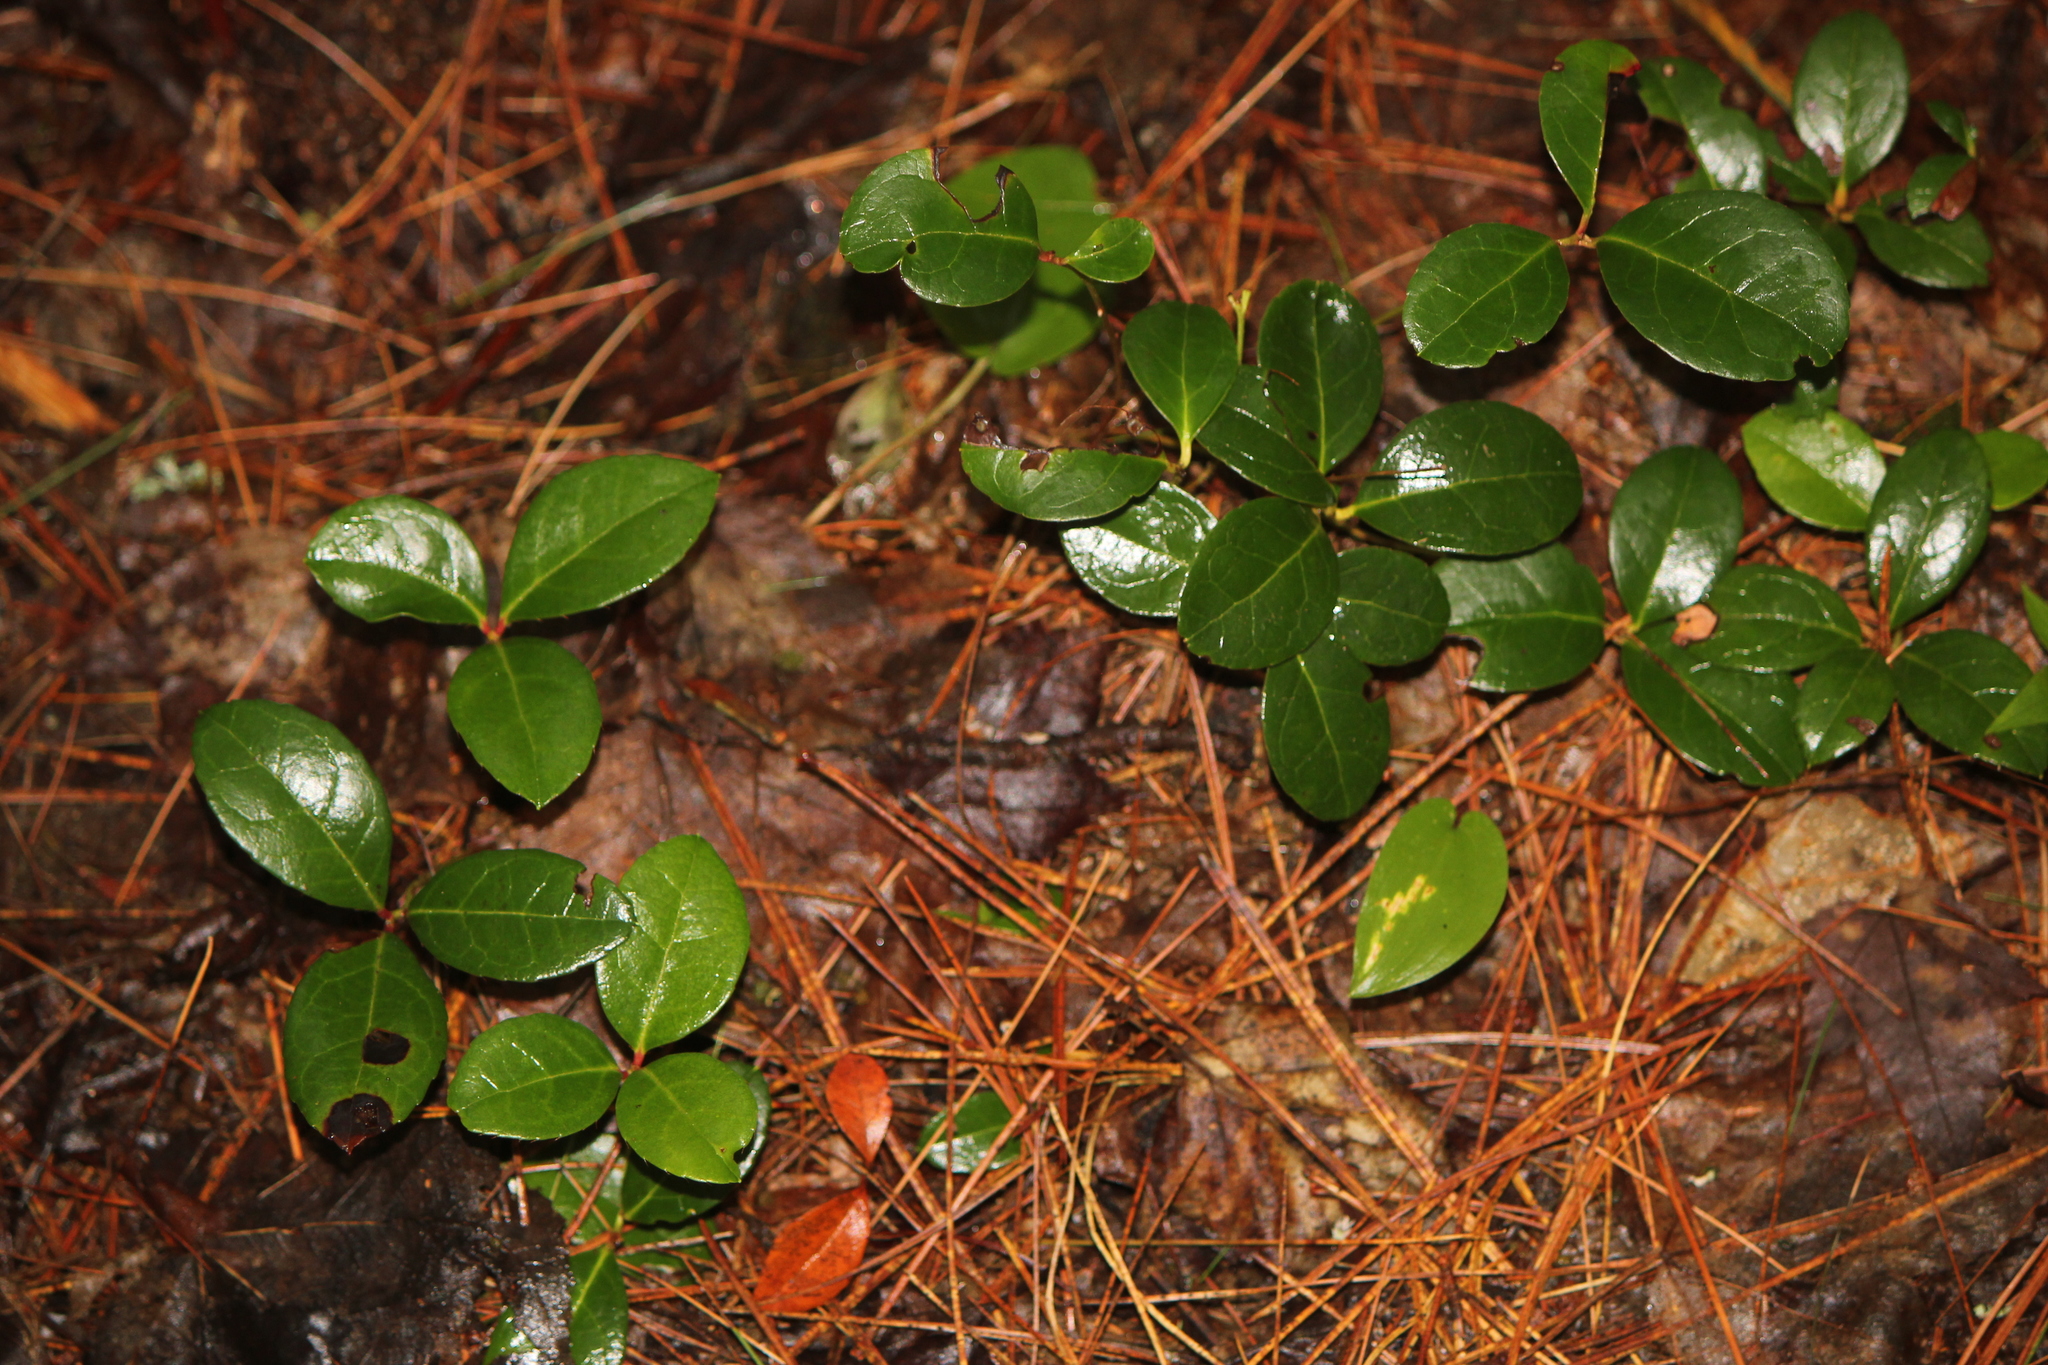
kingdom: Plantae
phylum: Tracheophyta
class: Magnoliopsida
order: Ericales
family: Ericaceae
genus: Gaultheria
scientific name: Gaultheria procumbens
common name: Checkerberry
